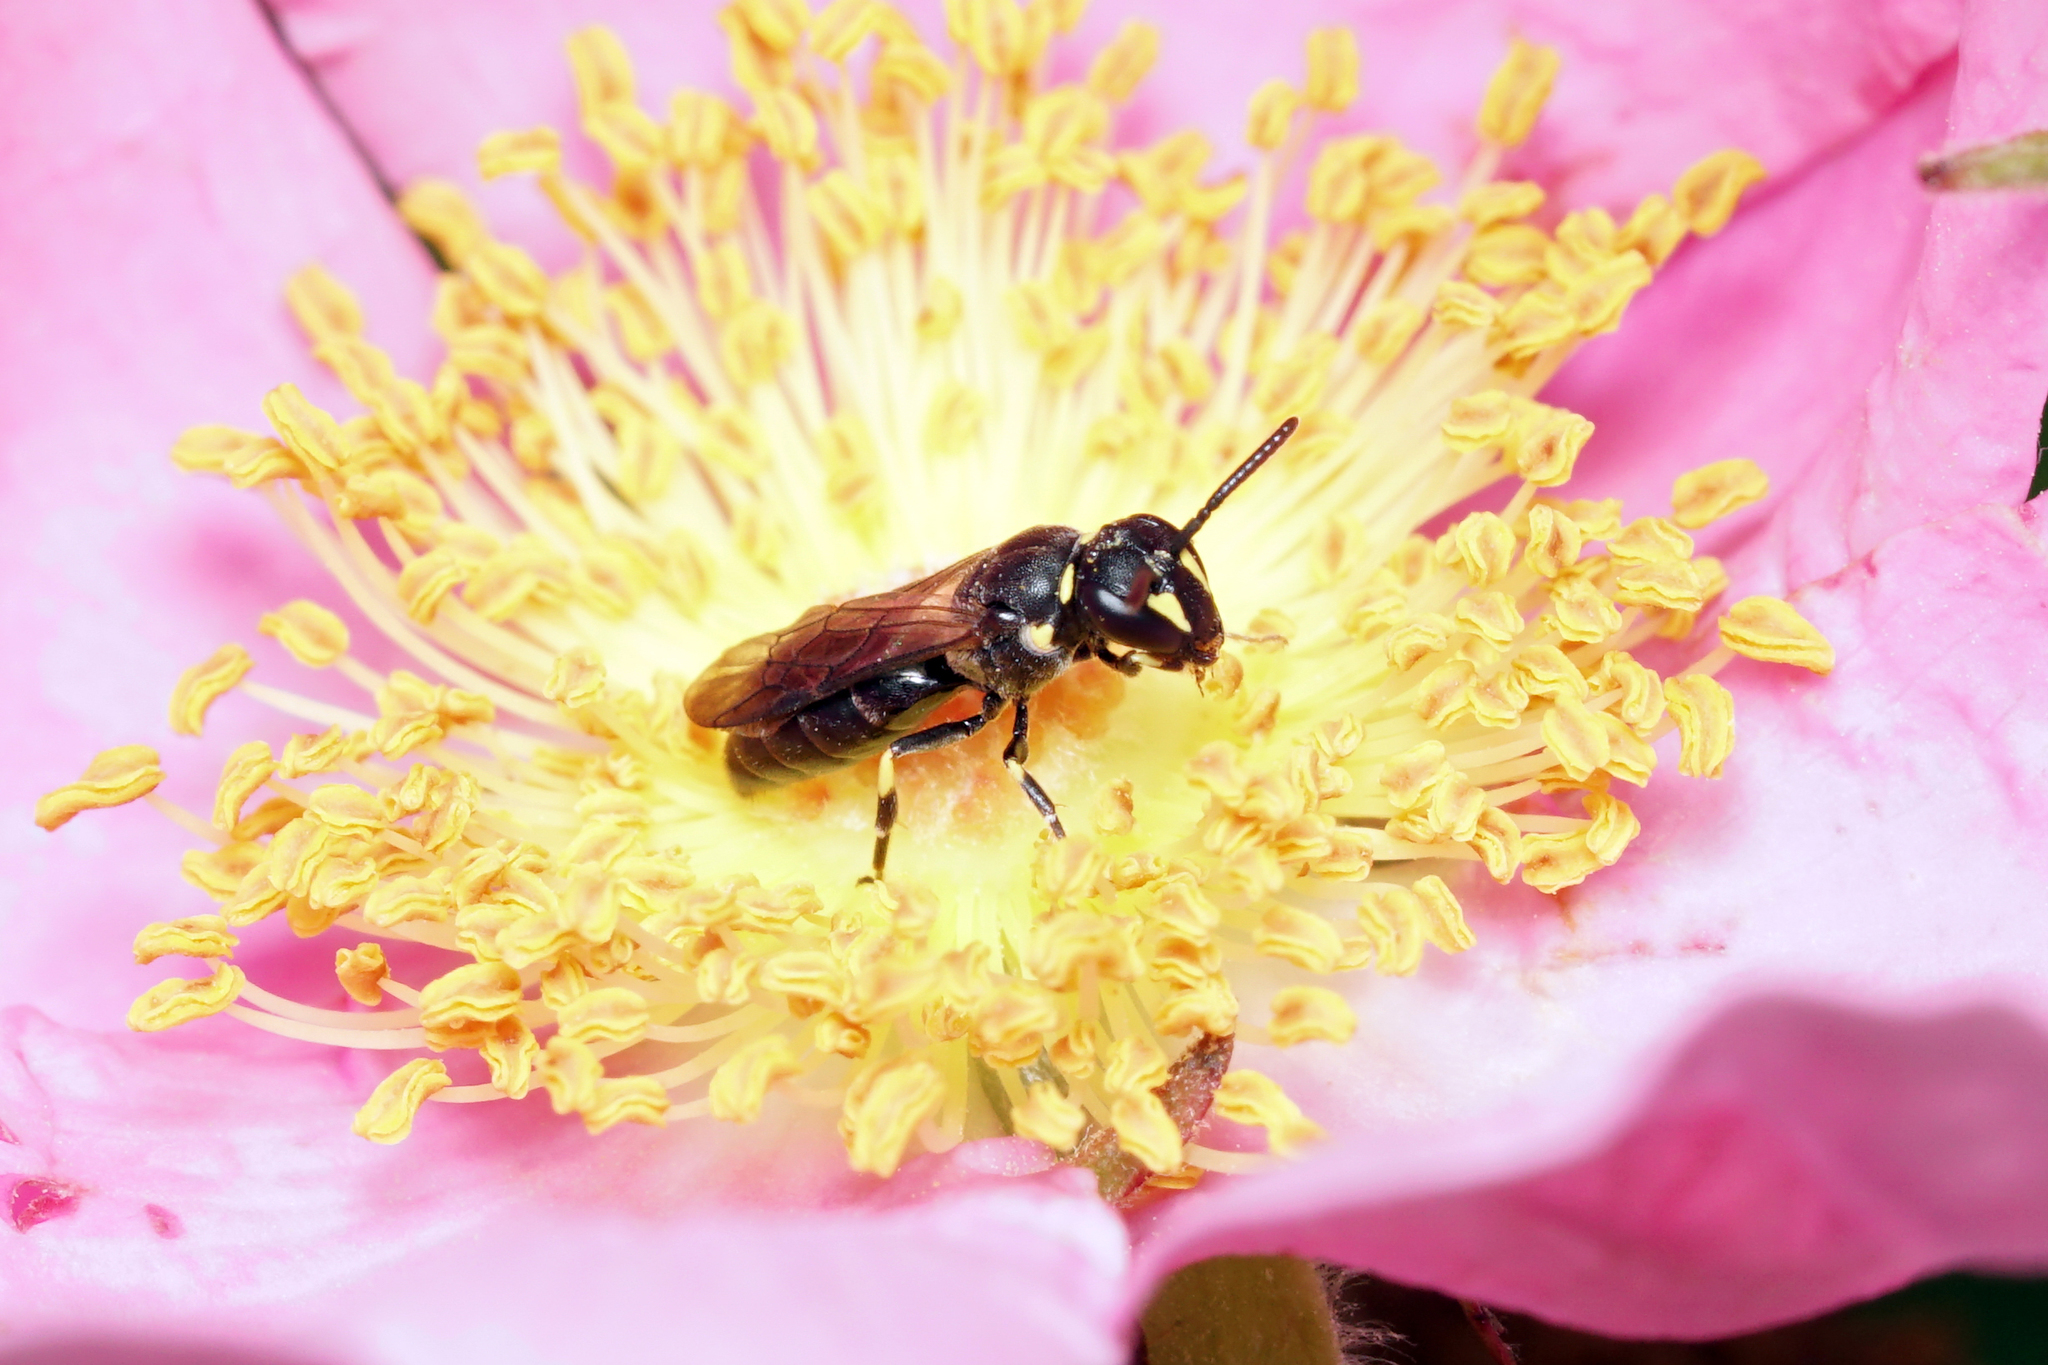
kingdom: Animalia
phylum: Arthropoda
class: Insecta
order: Hymenoptera
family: Colletidae
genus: Hylaeus
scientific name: Hylaeus modestus
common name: Yellow-faced bee
